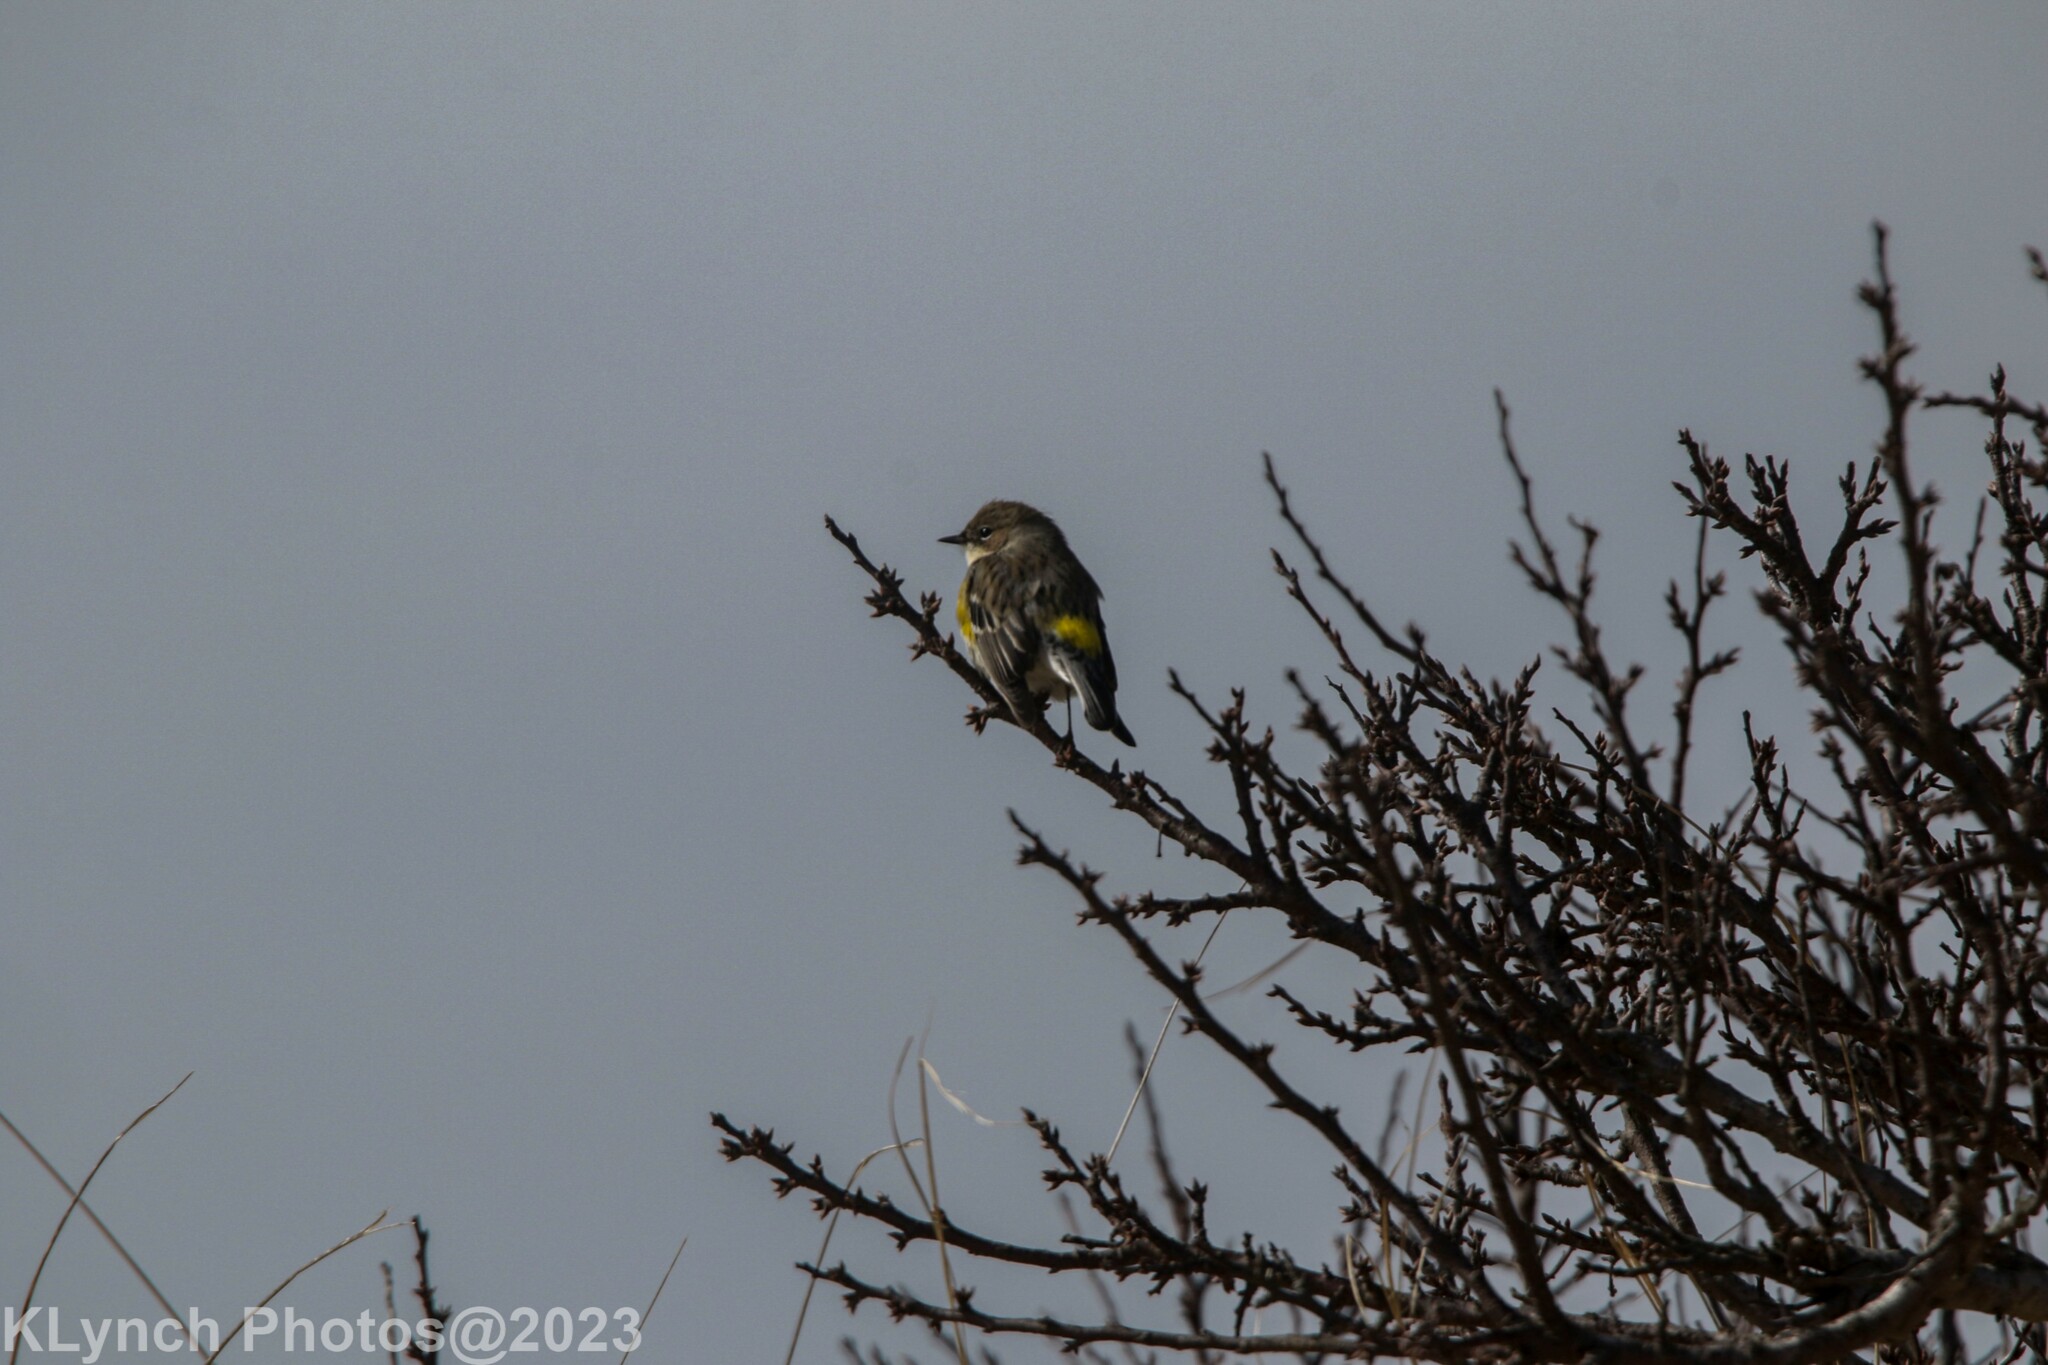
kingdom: Animalia
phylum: Chordata
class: Aves
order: Passeriformes
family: Parulidae
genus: Setophaga
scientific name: Setophaga coronata
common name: Myrtle warbler
